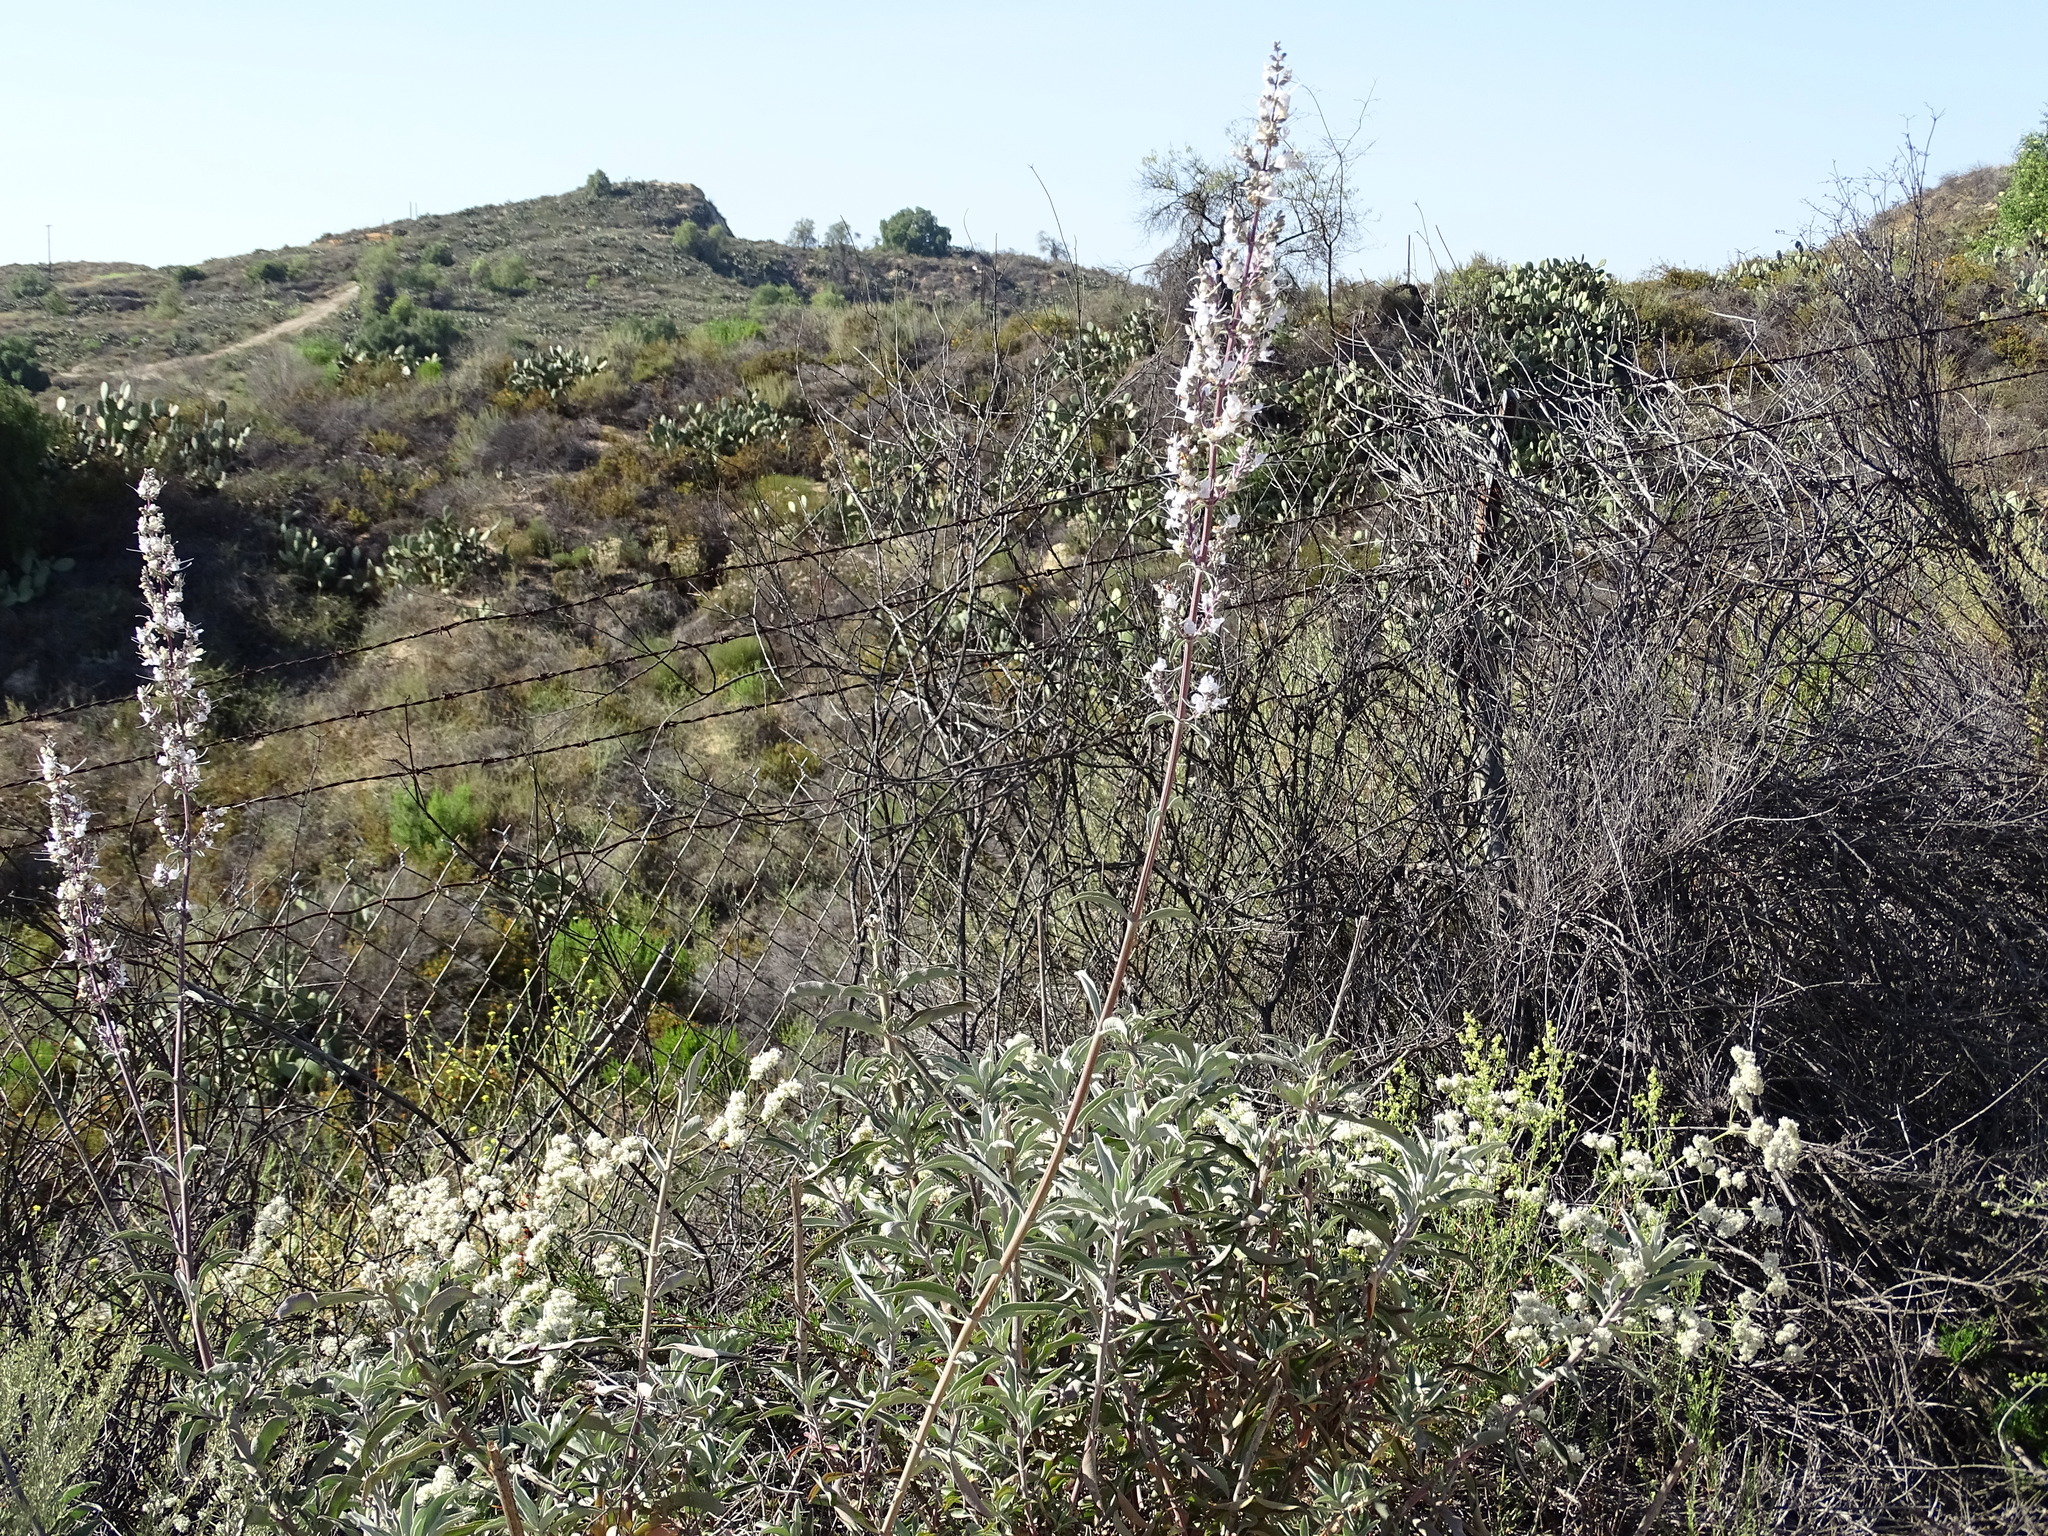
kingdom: Plantae
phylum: Tracheophyta
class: Magnoliopsida
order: Lamiales
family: Lamiaceae
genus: Salvia
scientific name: Salvia apiana
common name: White sage
